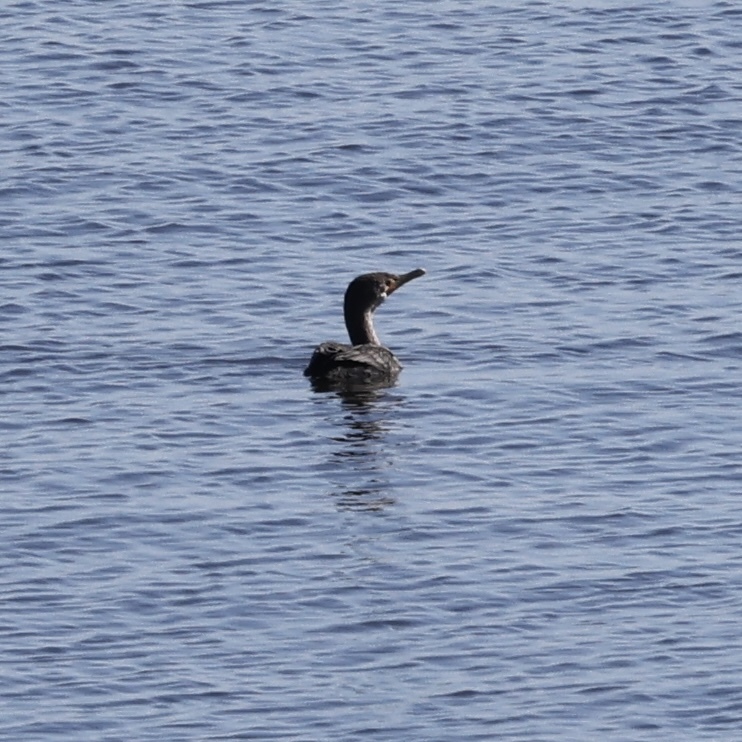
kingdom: Animalia
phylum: Chordata
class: Aves
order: Suliformes
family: Phalacrocoracidae
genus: Phalacrocorax
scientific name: Phalacrocorax auritus
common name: Double-crested cormorant
